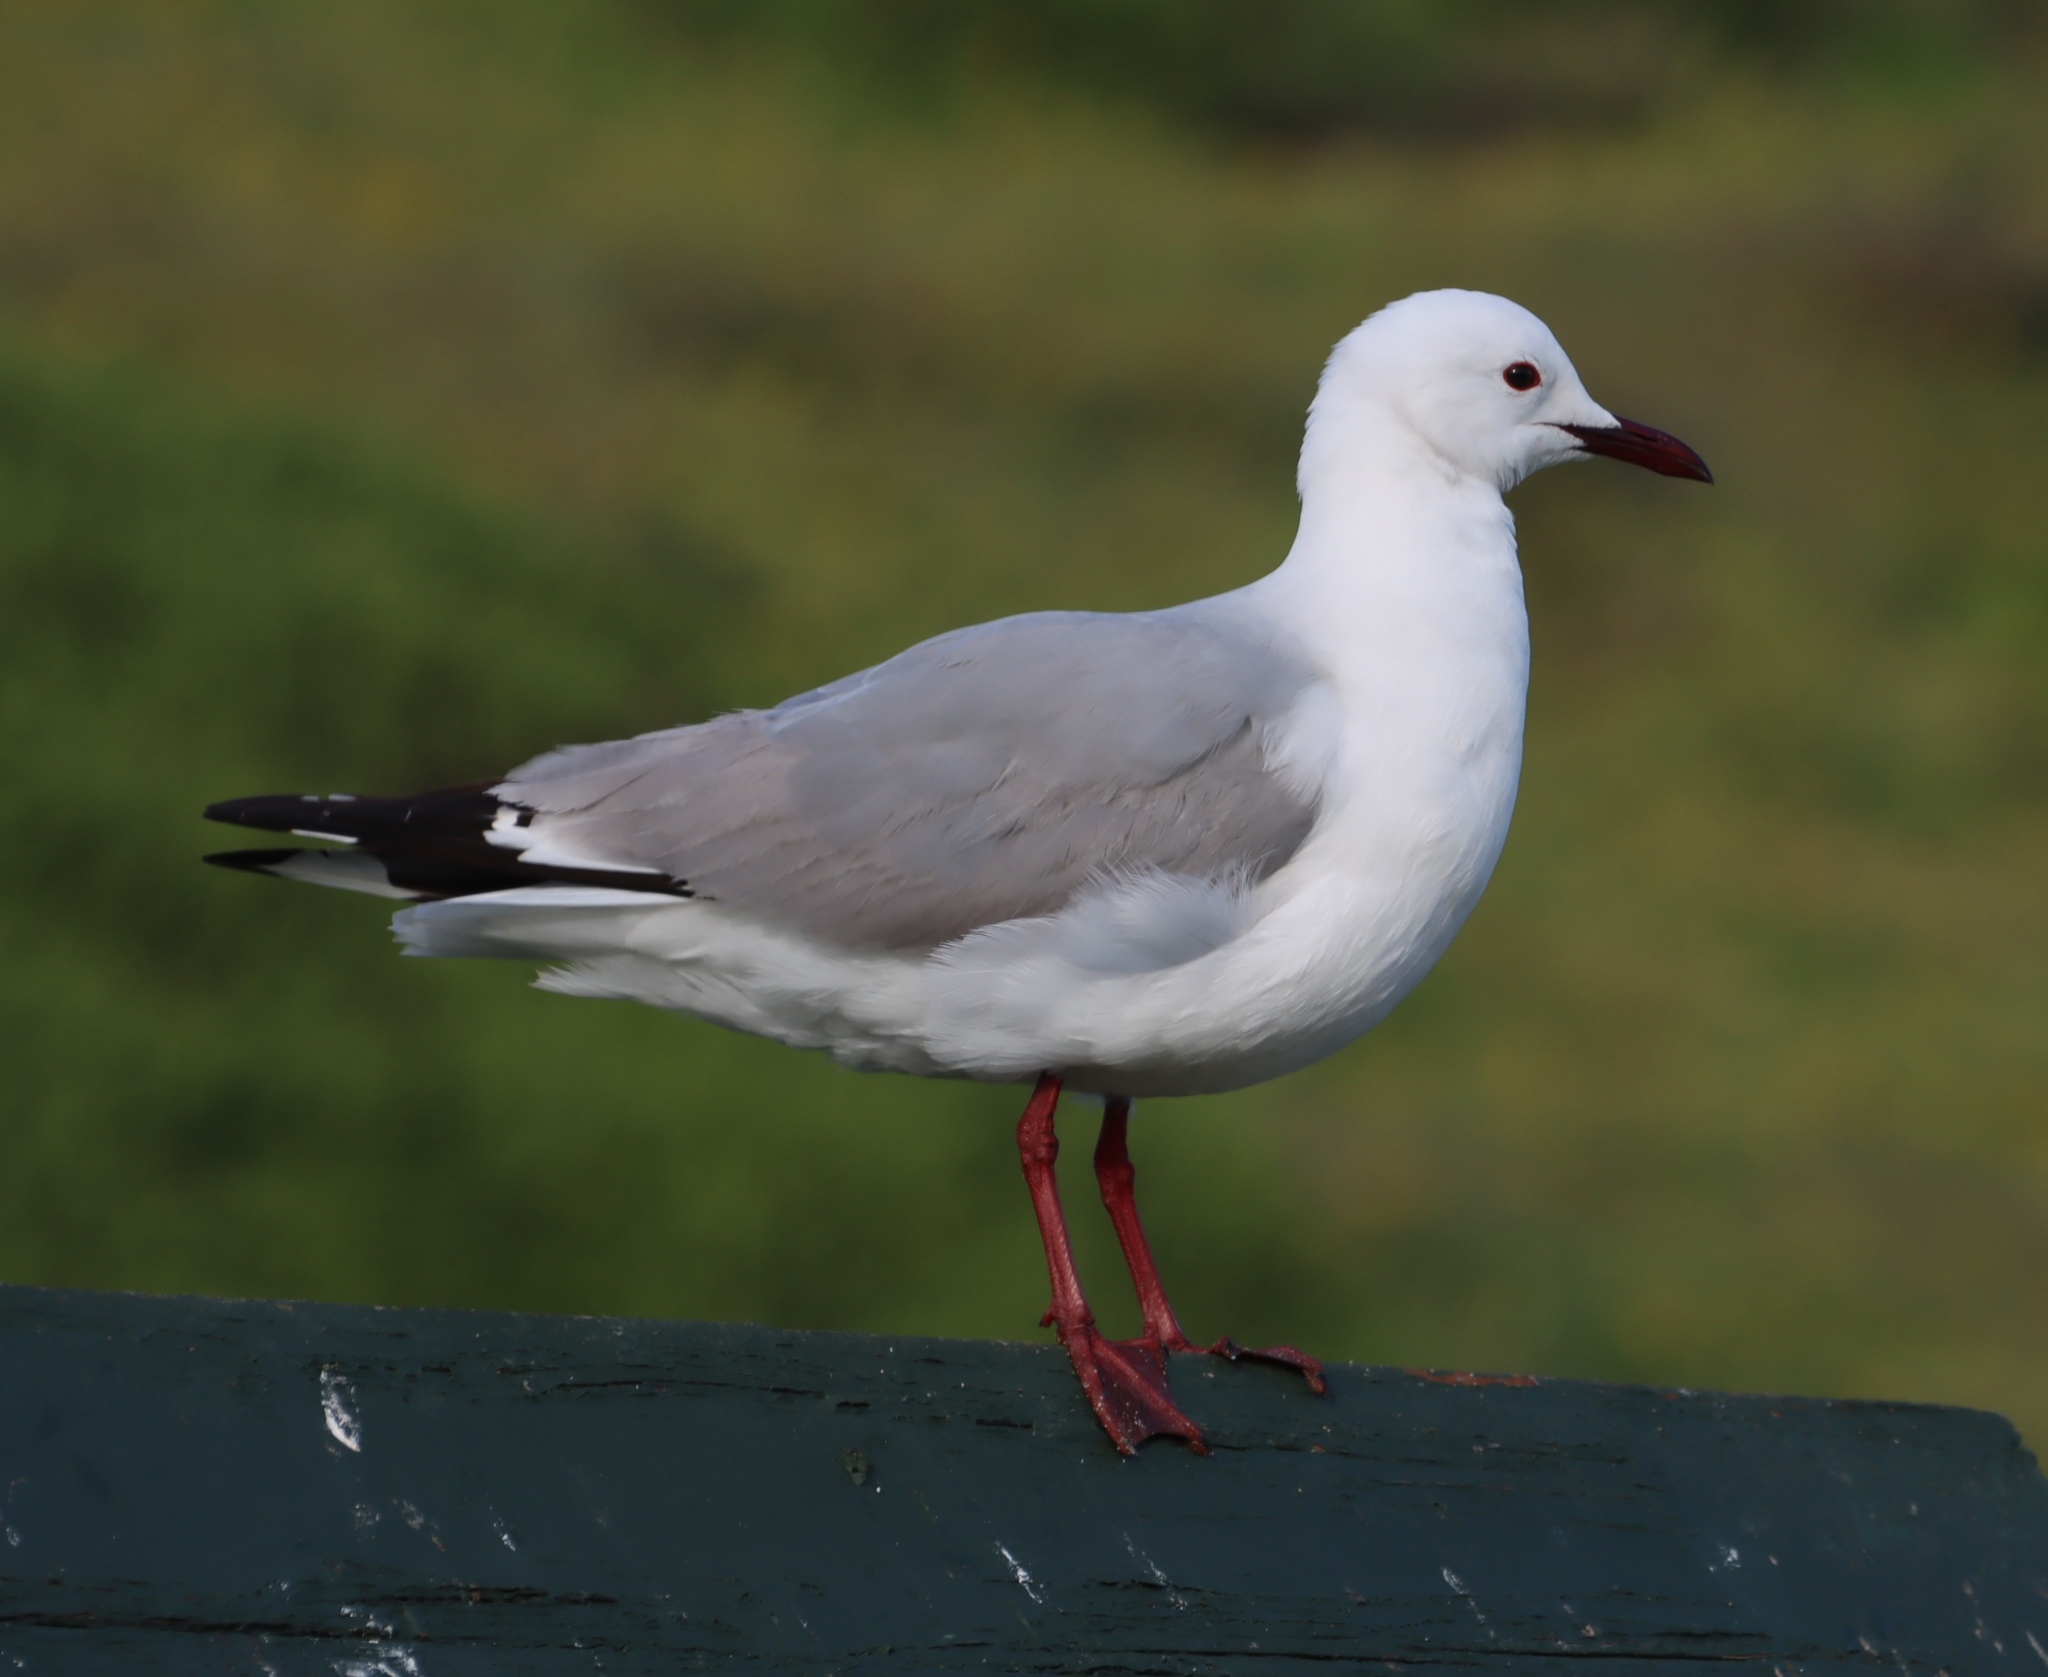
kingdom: Animalia
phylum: Chordata
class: Aves
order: Charadriiformes
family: Laridae
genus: Chroicocephalus
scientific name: Chroicocephalus hartlaubii
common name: Hartlaub's gull
